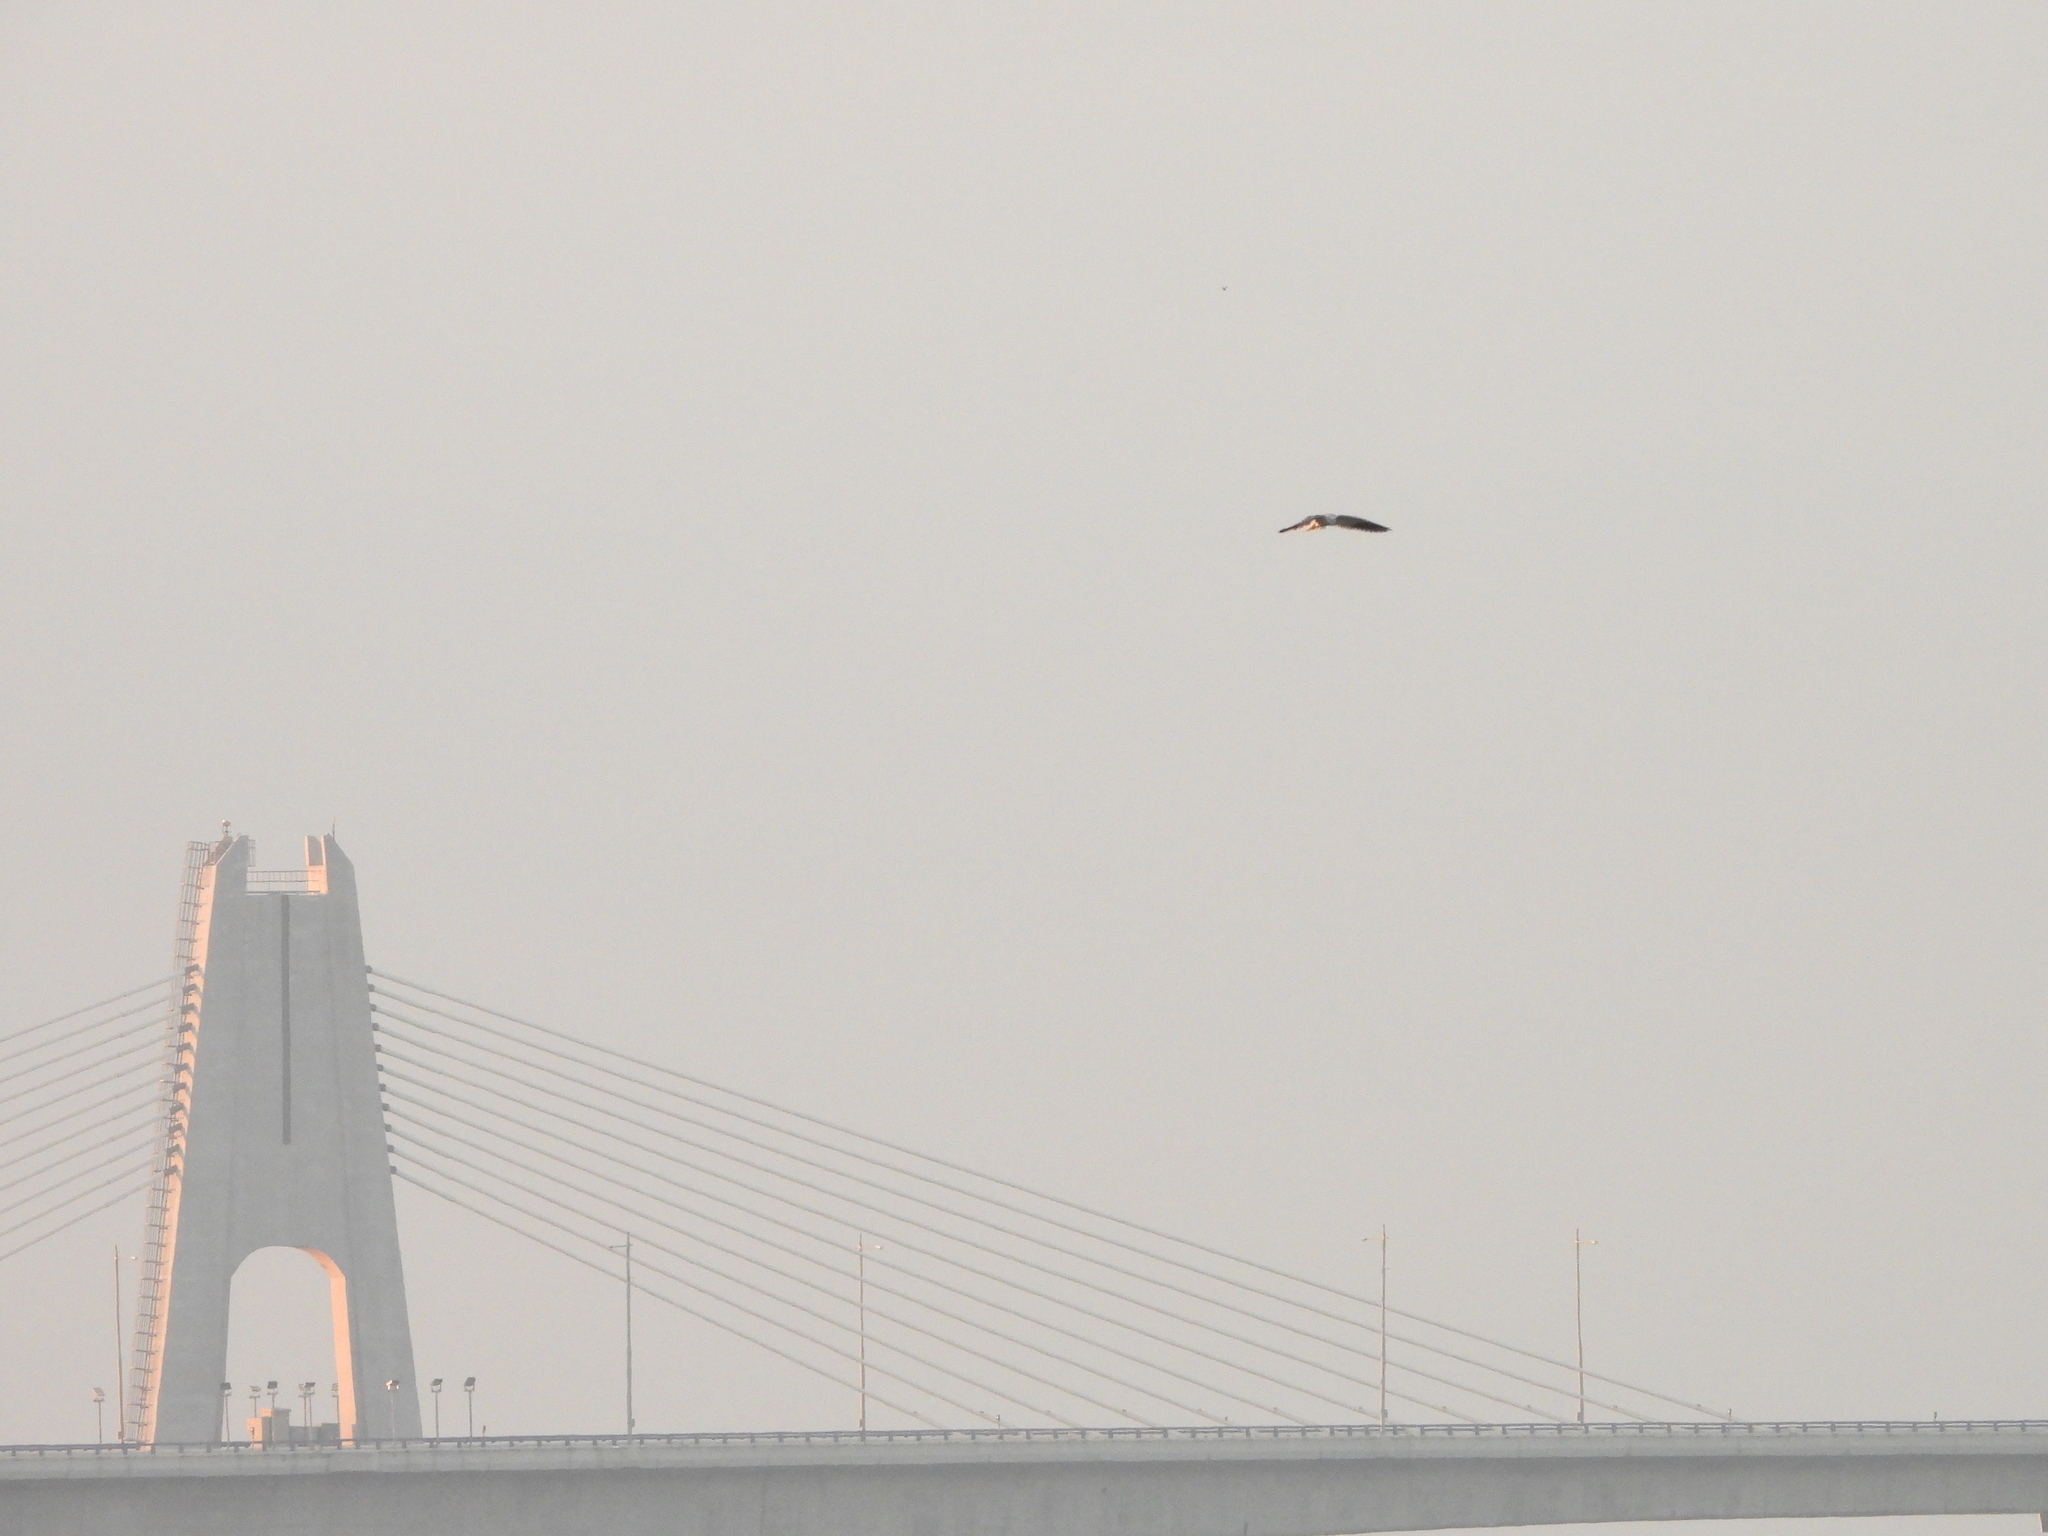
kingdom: Animalia
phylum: Chordata
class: Aves
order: Accipitriformes
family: Accipitridae
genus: Elanus
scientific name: Elanus caeruleus
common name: Black-winged kite
